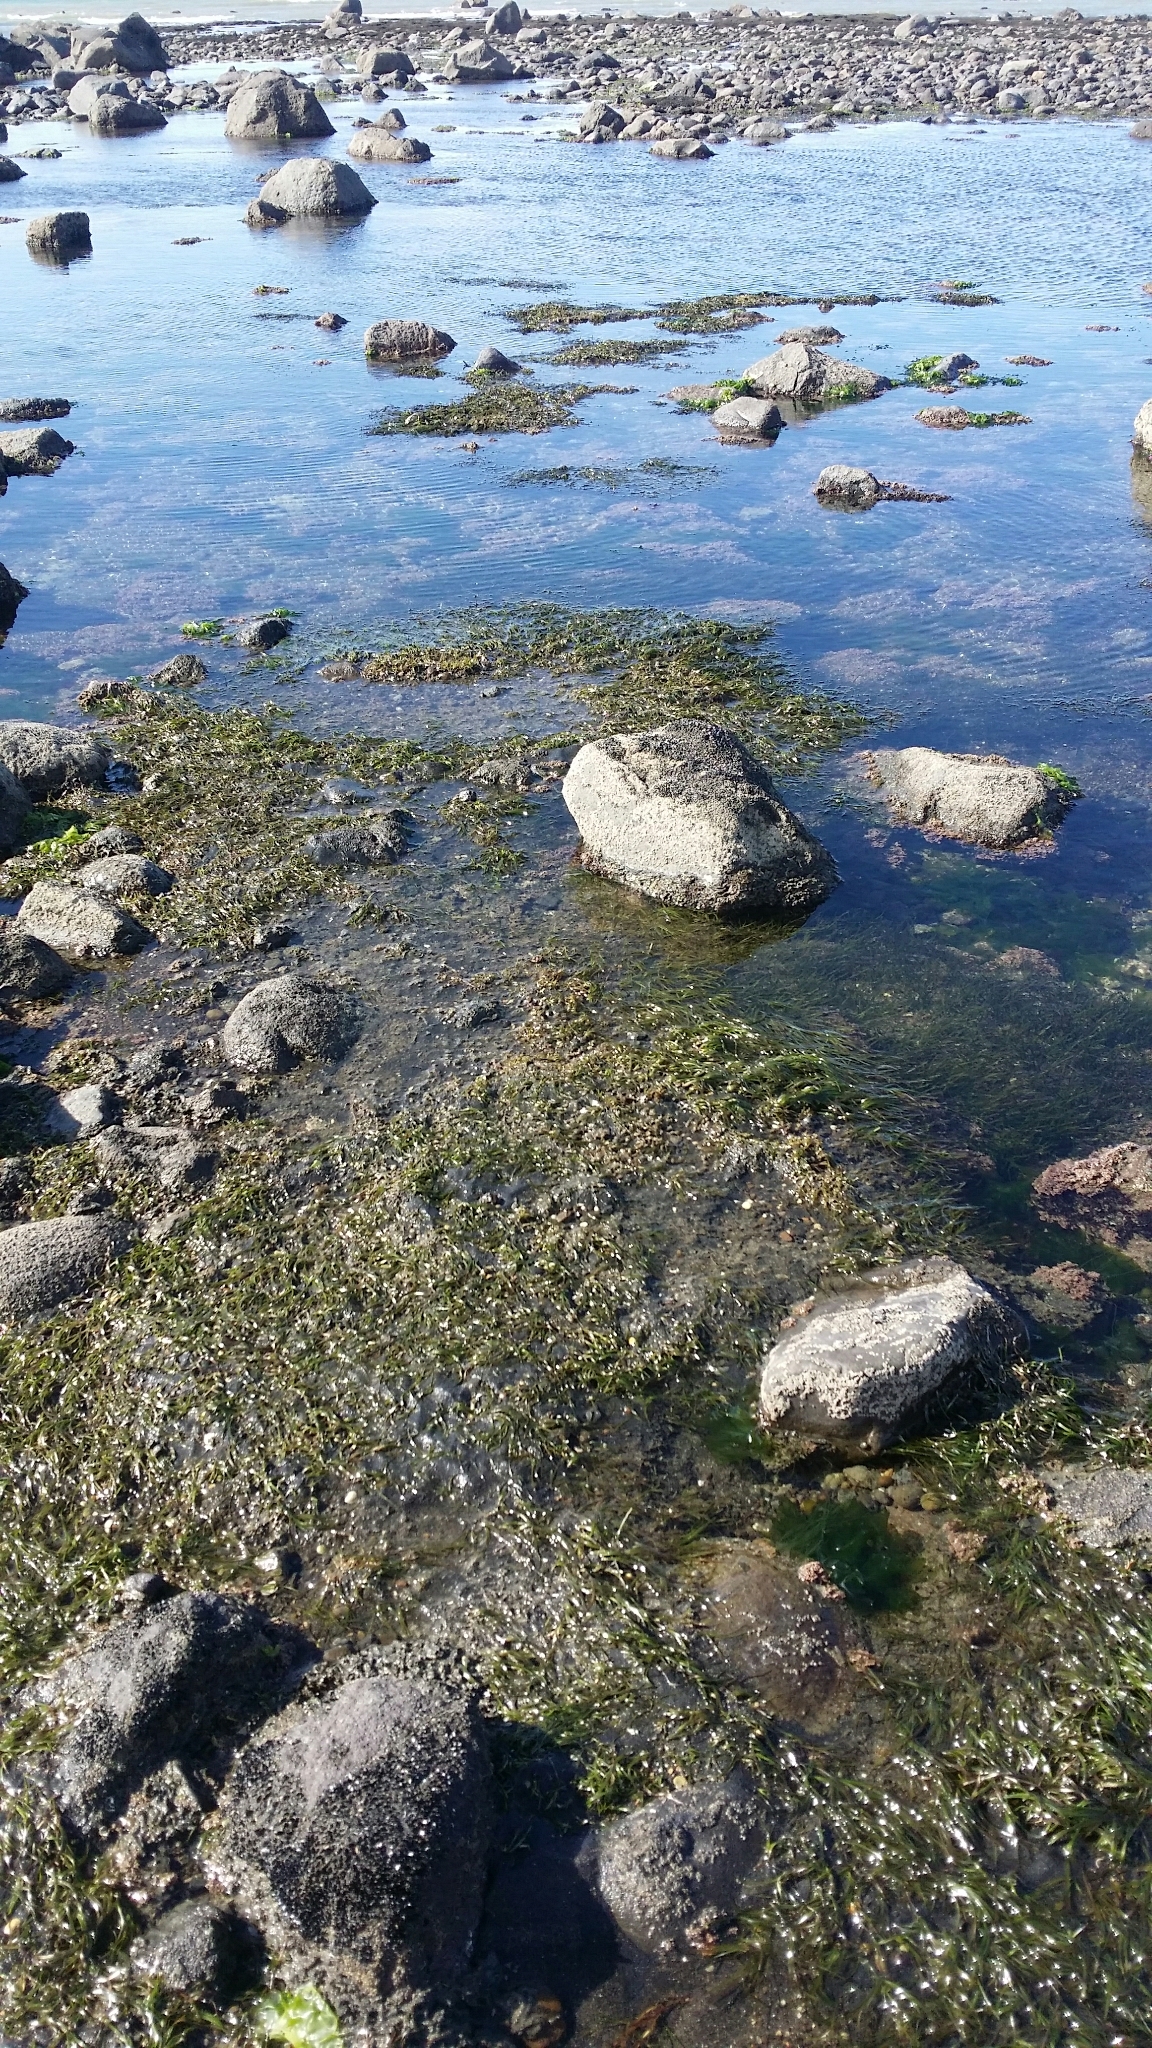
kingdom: Plantae
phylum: Tracheophyta
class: Liliopsida
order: Alismatales
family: Zosteraceae
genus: Zostera
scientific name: Zostera novazelandica
